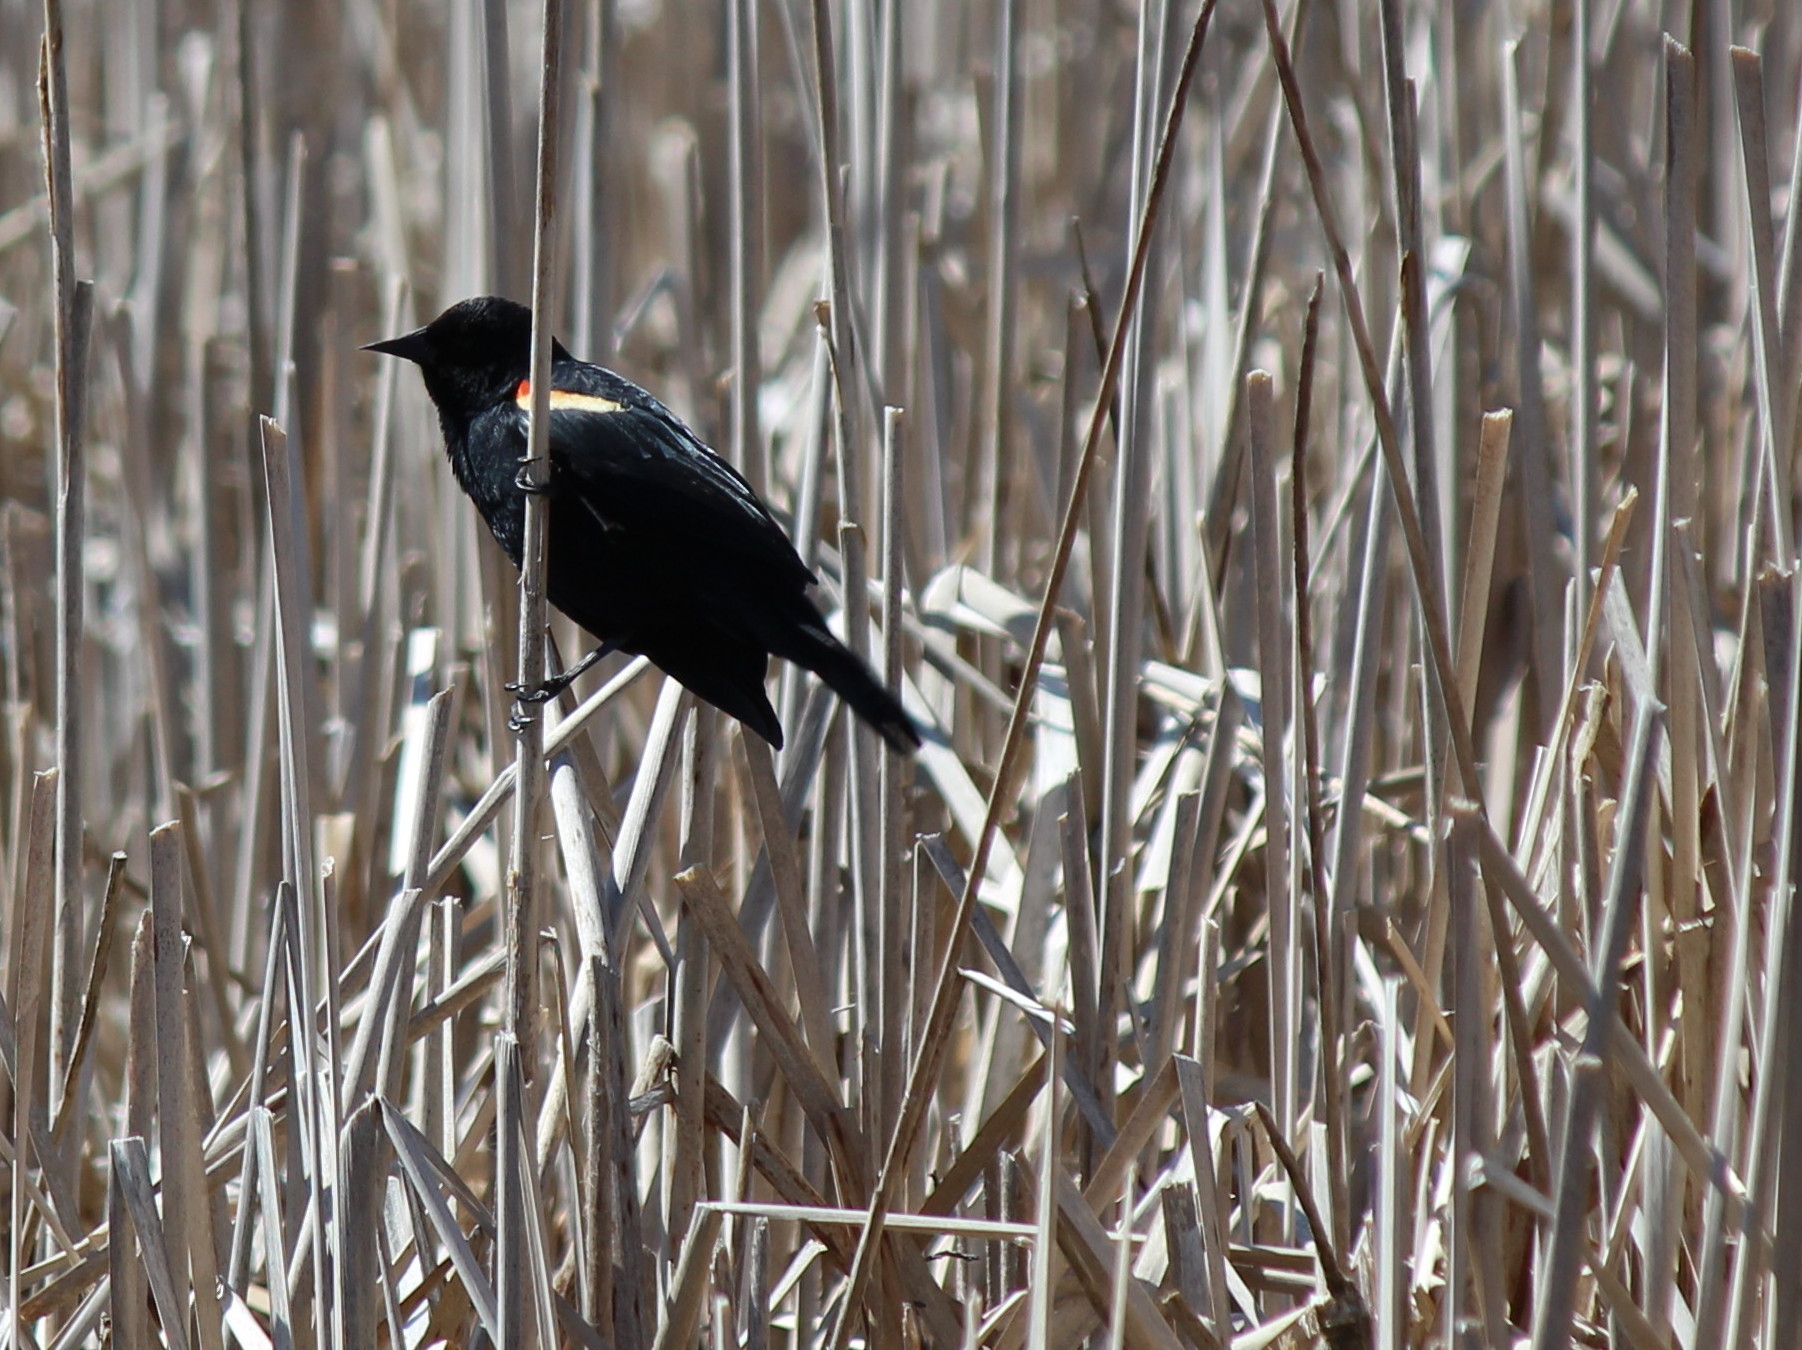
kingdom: Animalia
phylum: Chordata
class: Aves
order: Passeriformes
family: Icteridae
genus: Agelaius
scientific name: Agelaius phoeniceus
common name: Red-winged blackbird
